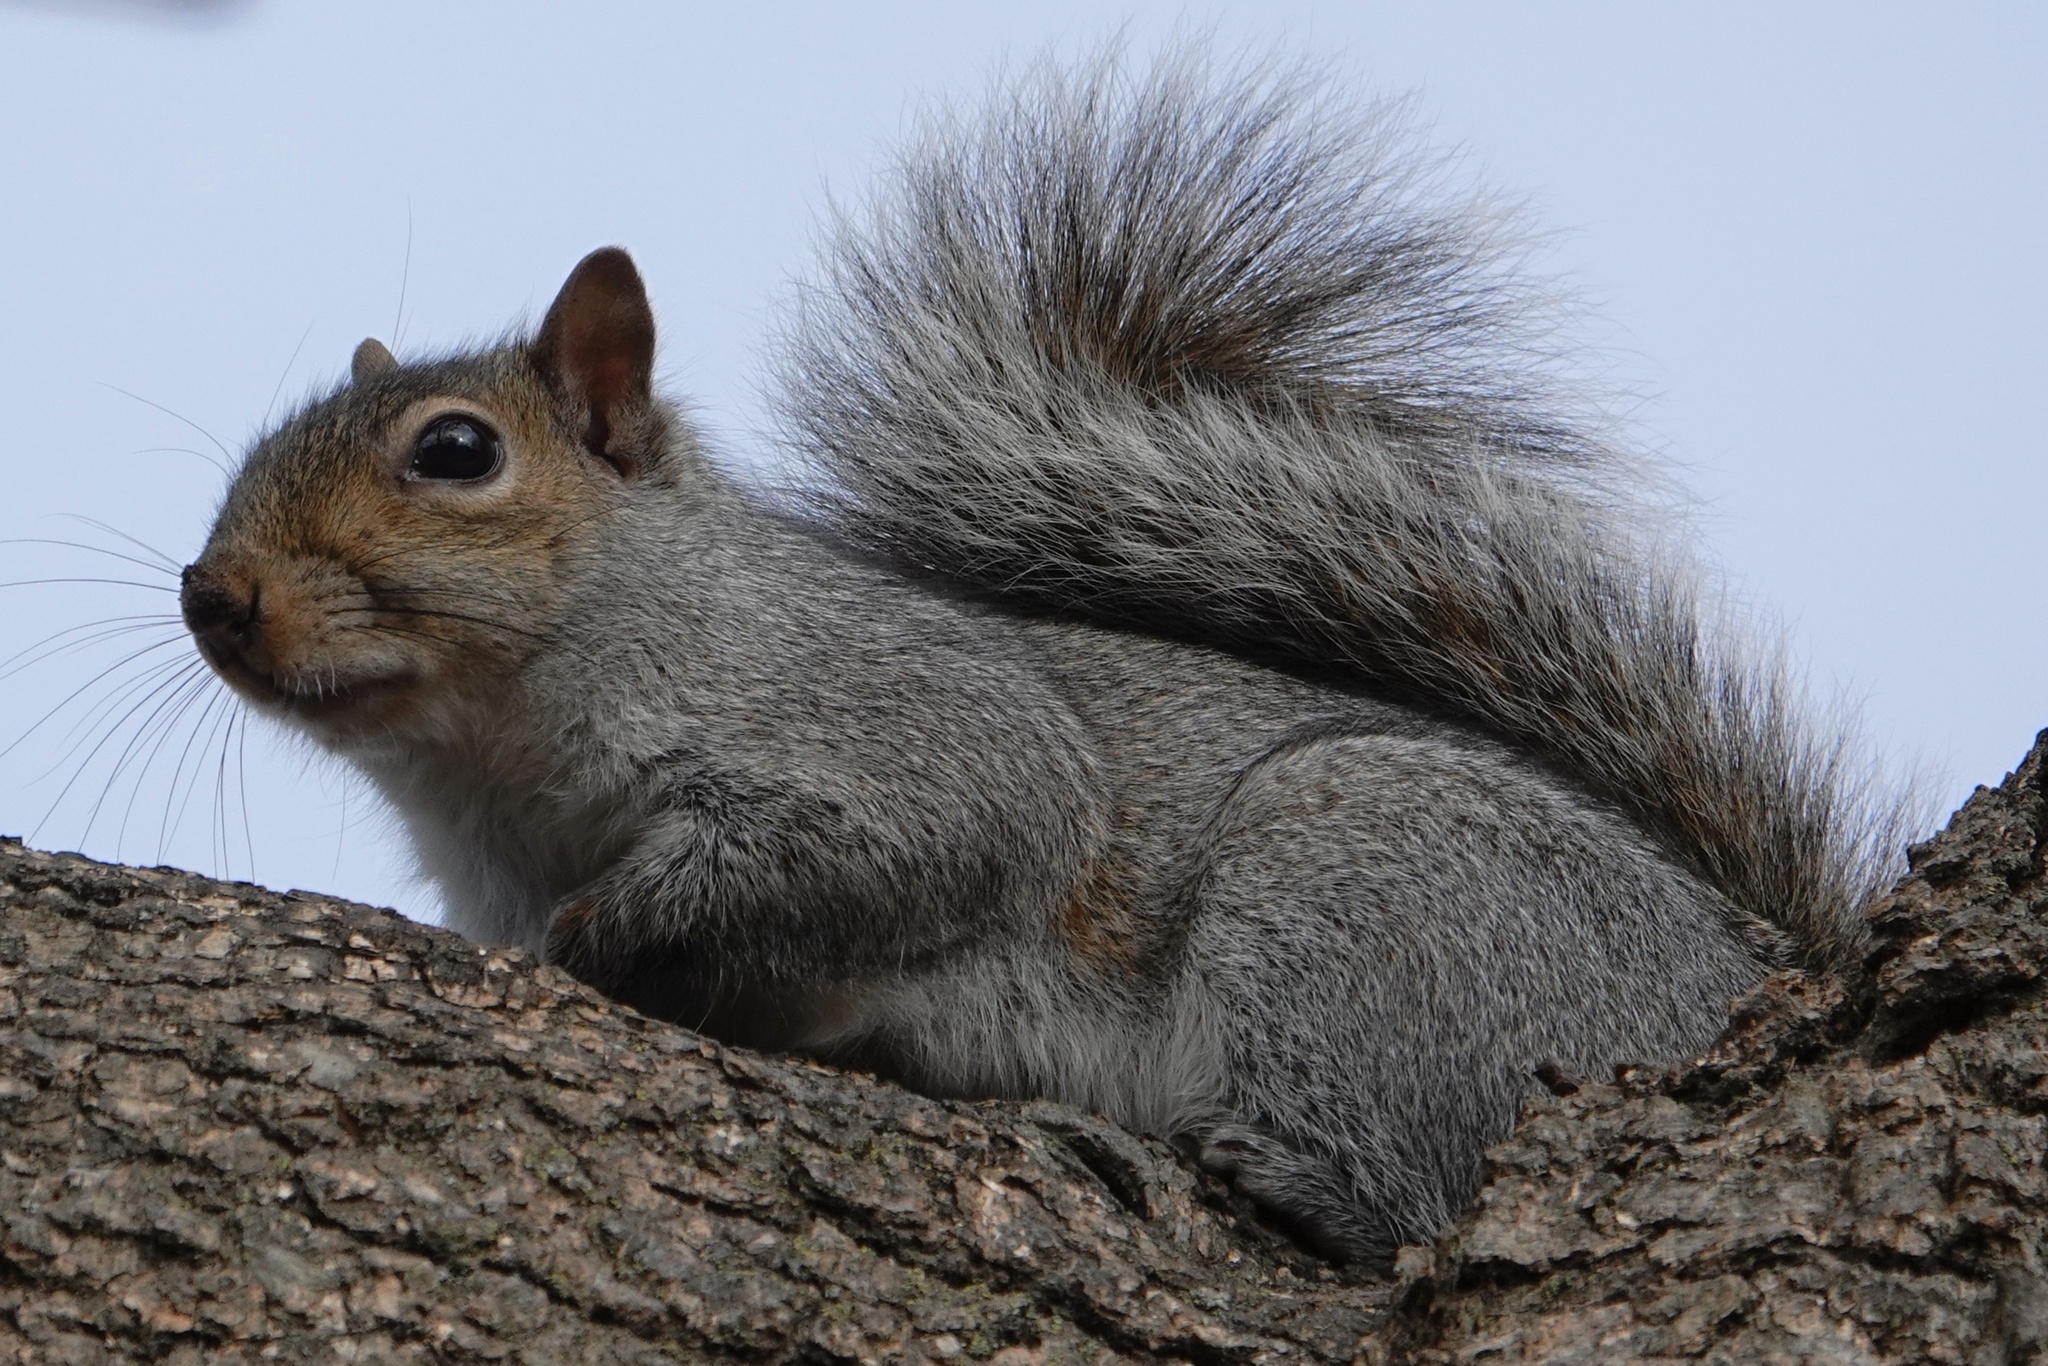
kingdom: Animalia
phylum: Chordata
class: Mammalia
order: Rodentia
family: Sciuridae
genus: Sciurus
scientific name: Sciurus carolinensis
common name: Eastern gray squirrel
